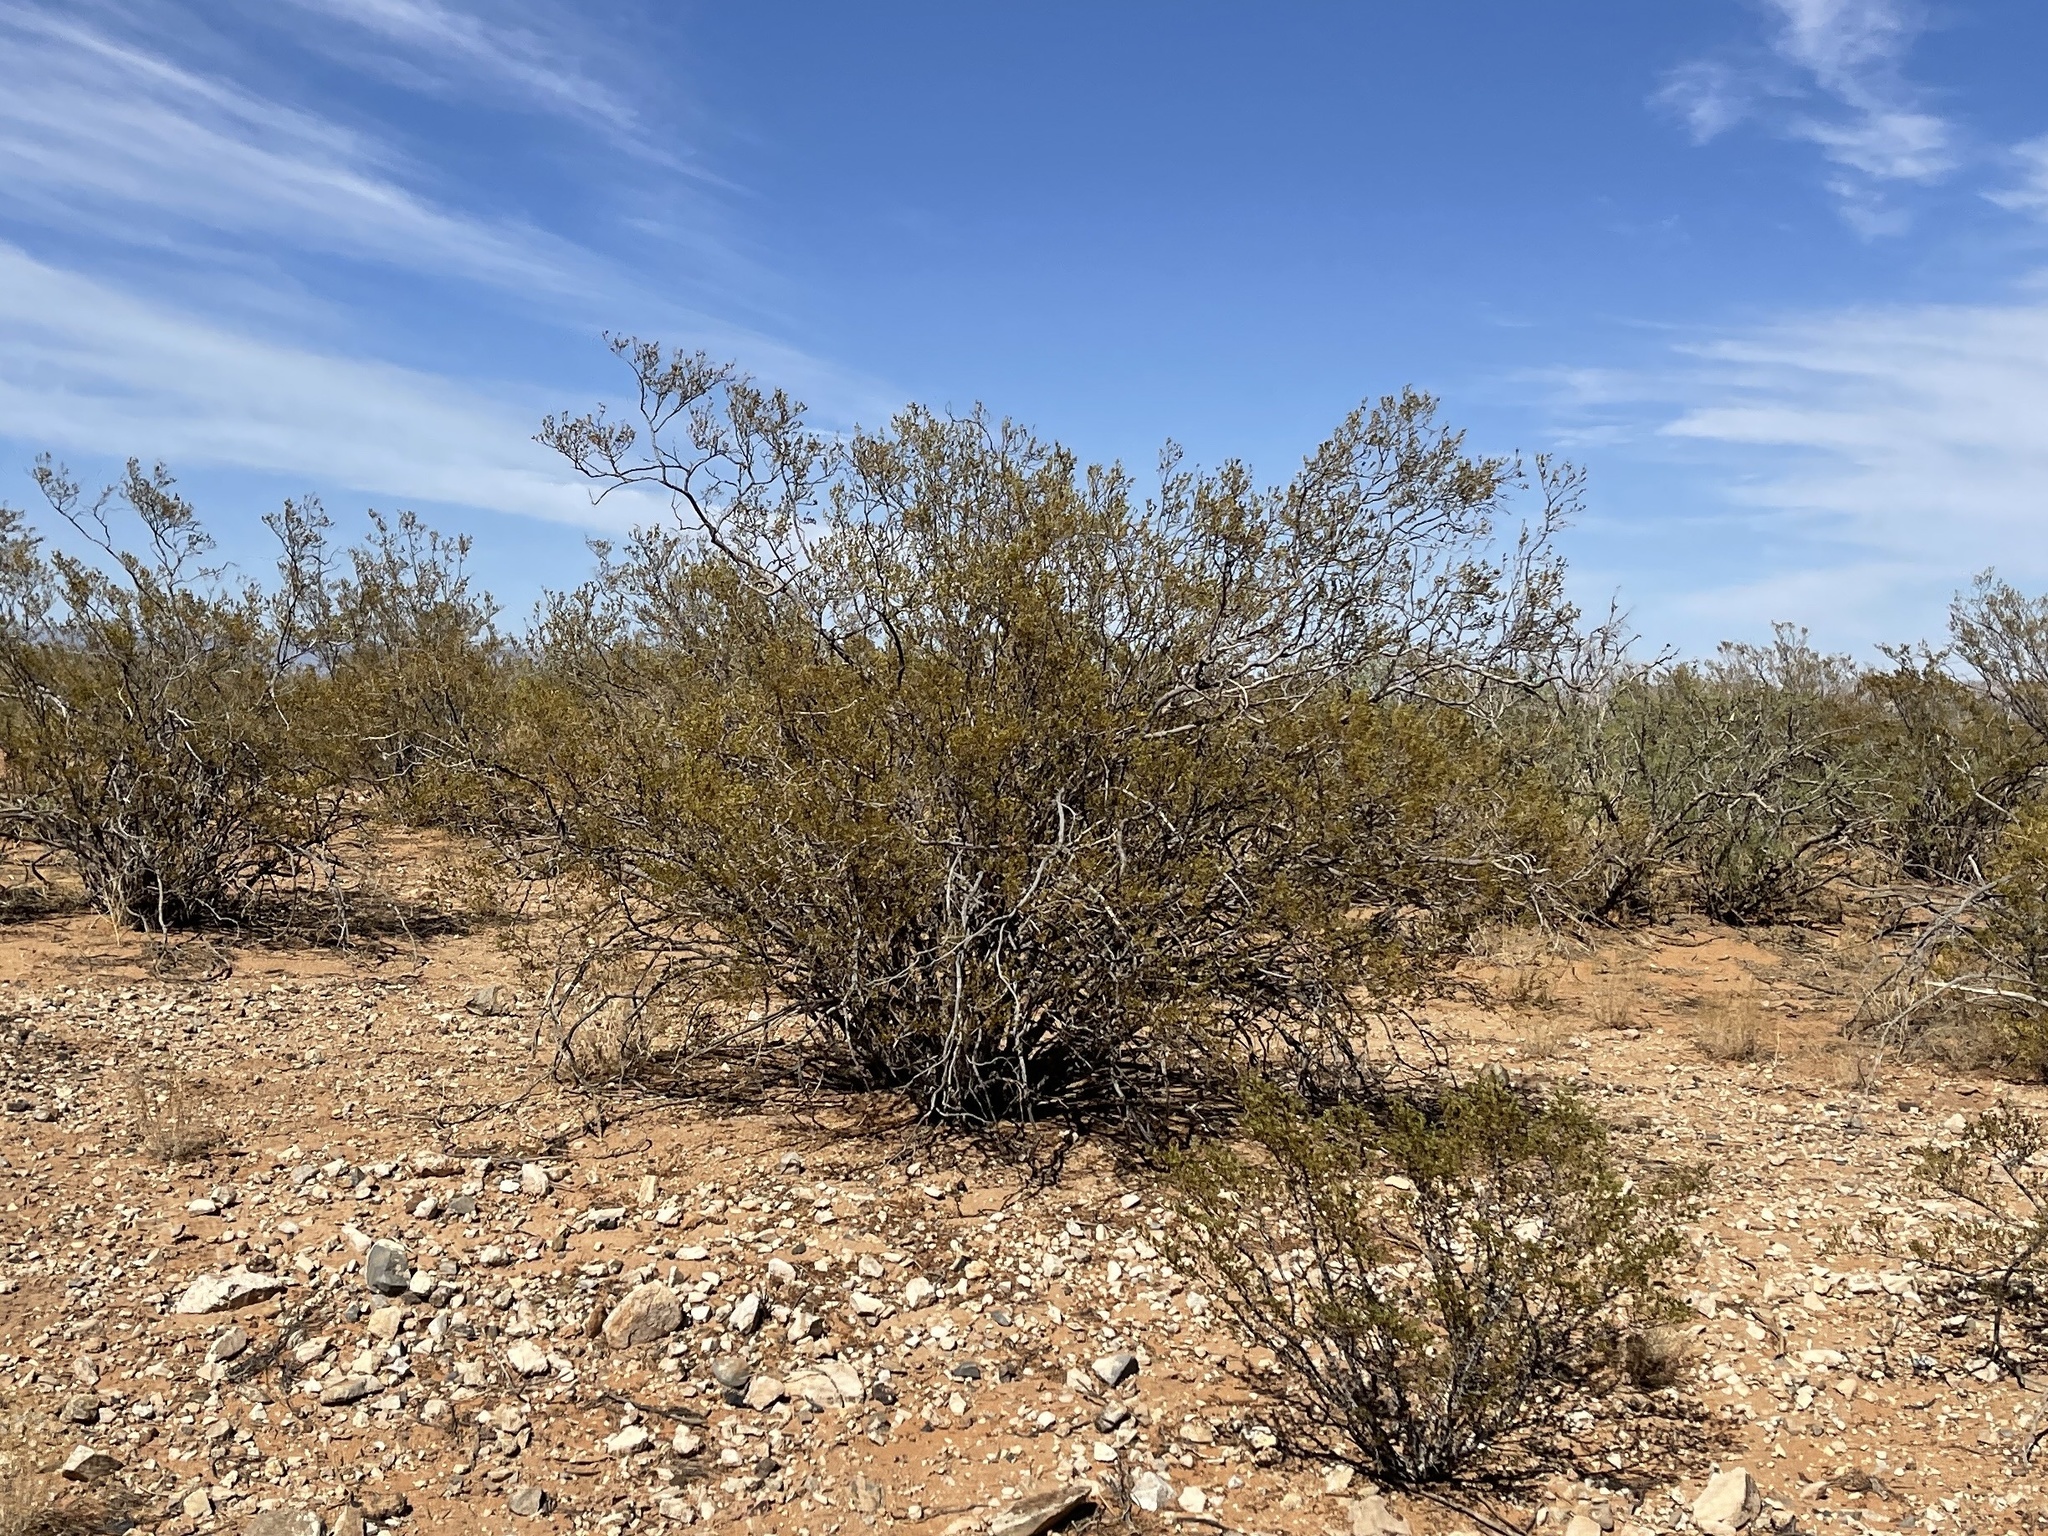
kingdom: Plantae
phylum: Tracheophyta
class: Magnoliopsida
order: Zygophyllales
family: Zygophyllaceae
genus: Larrea
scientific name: Larrea tridentata
